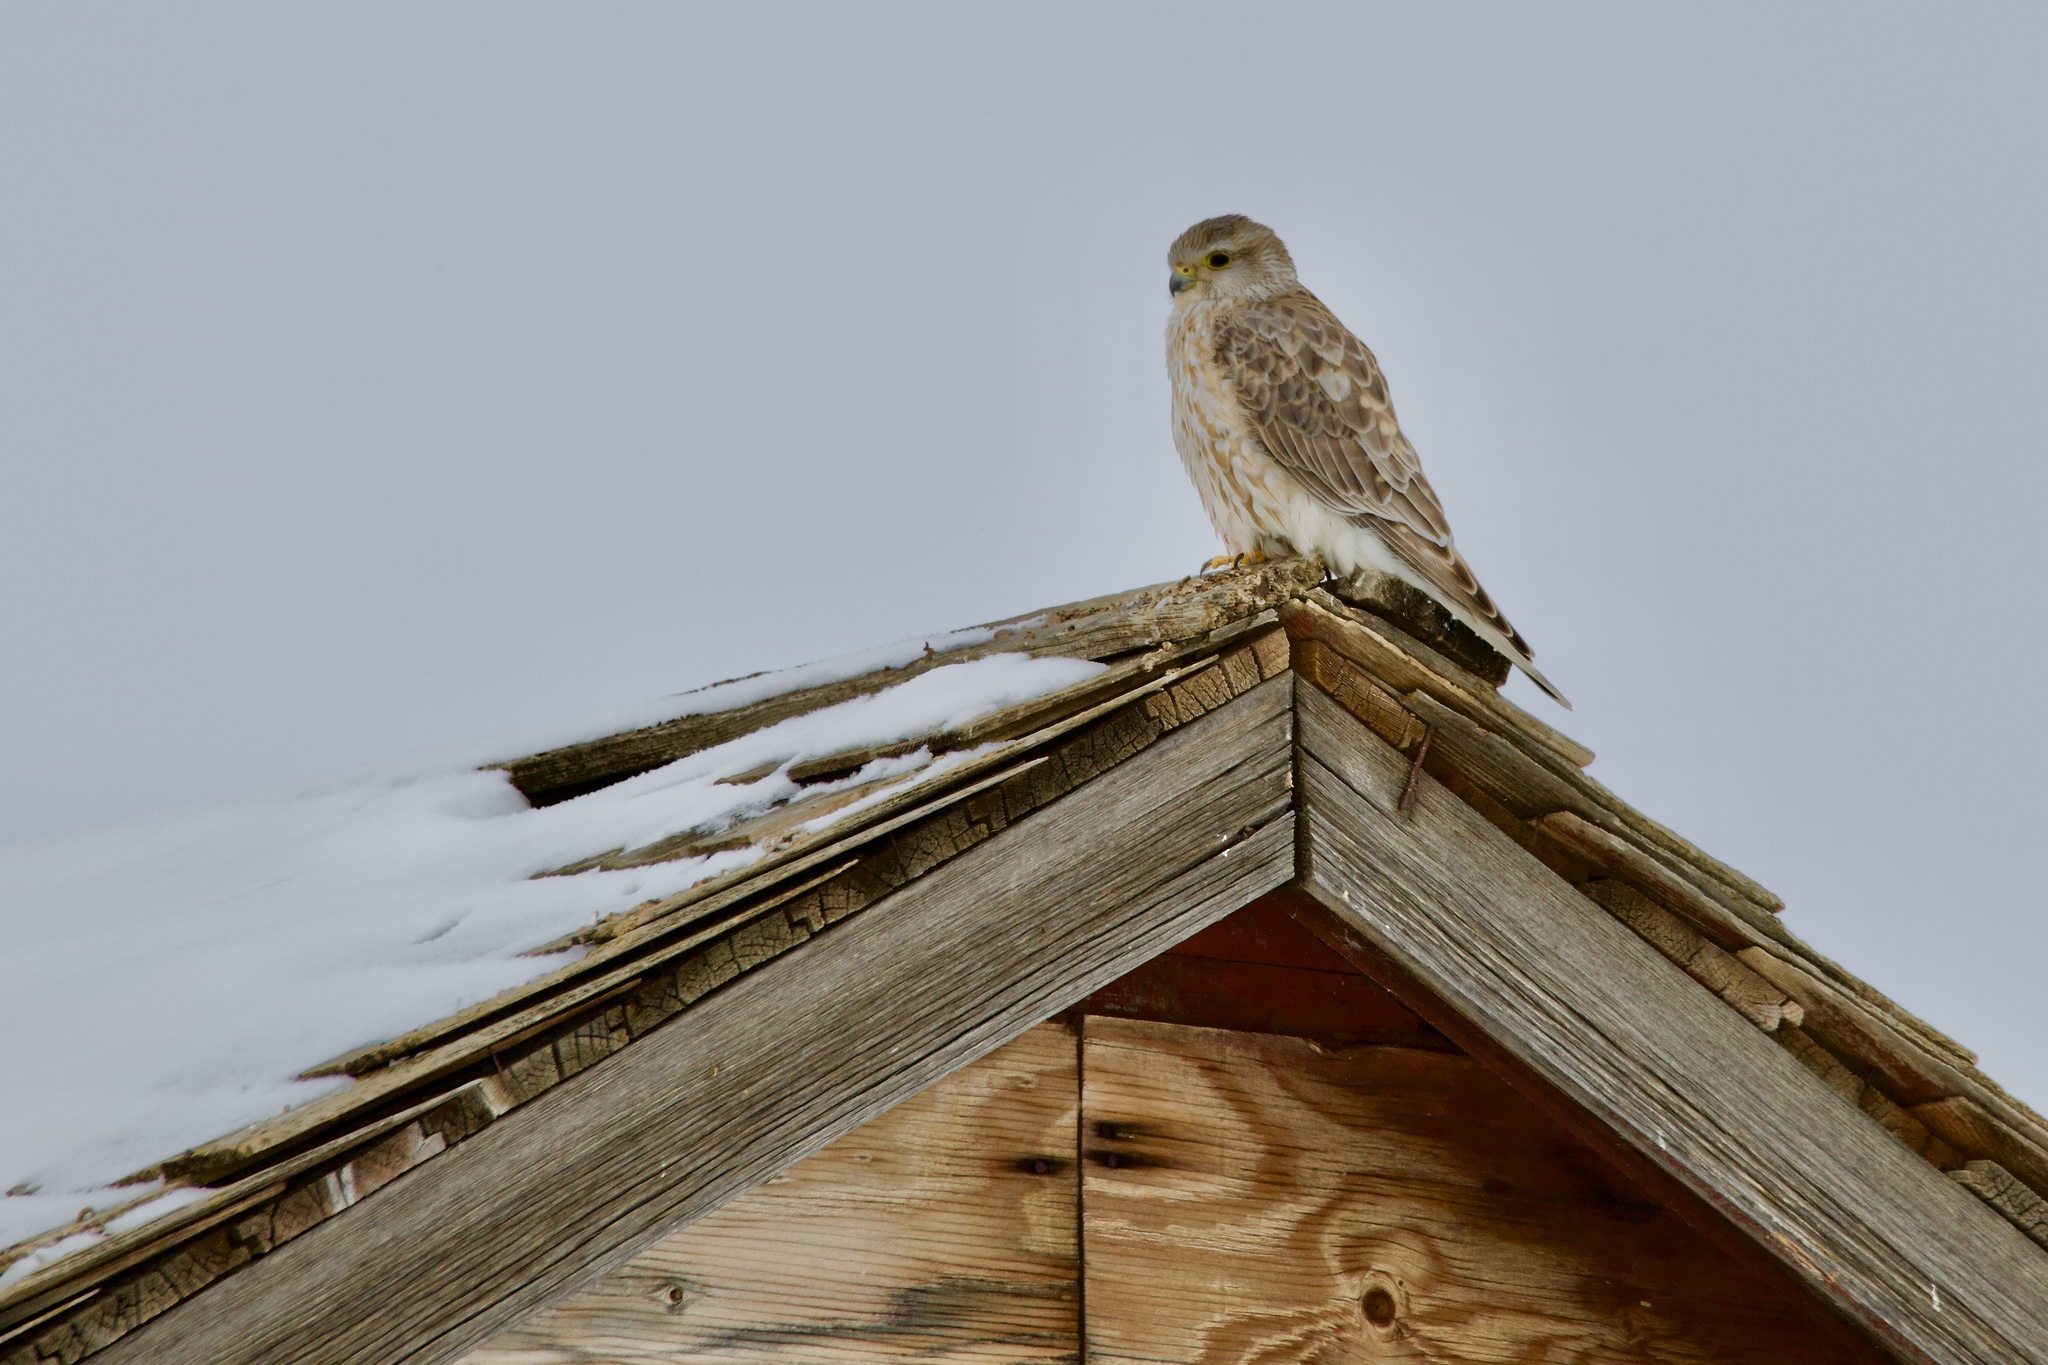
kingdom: Animalia
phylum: Chordata
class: Aves
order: Falconiformes
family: Falconidae
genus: Falco
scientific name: Falco columbarius
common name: Merlin
